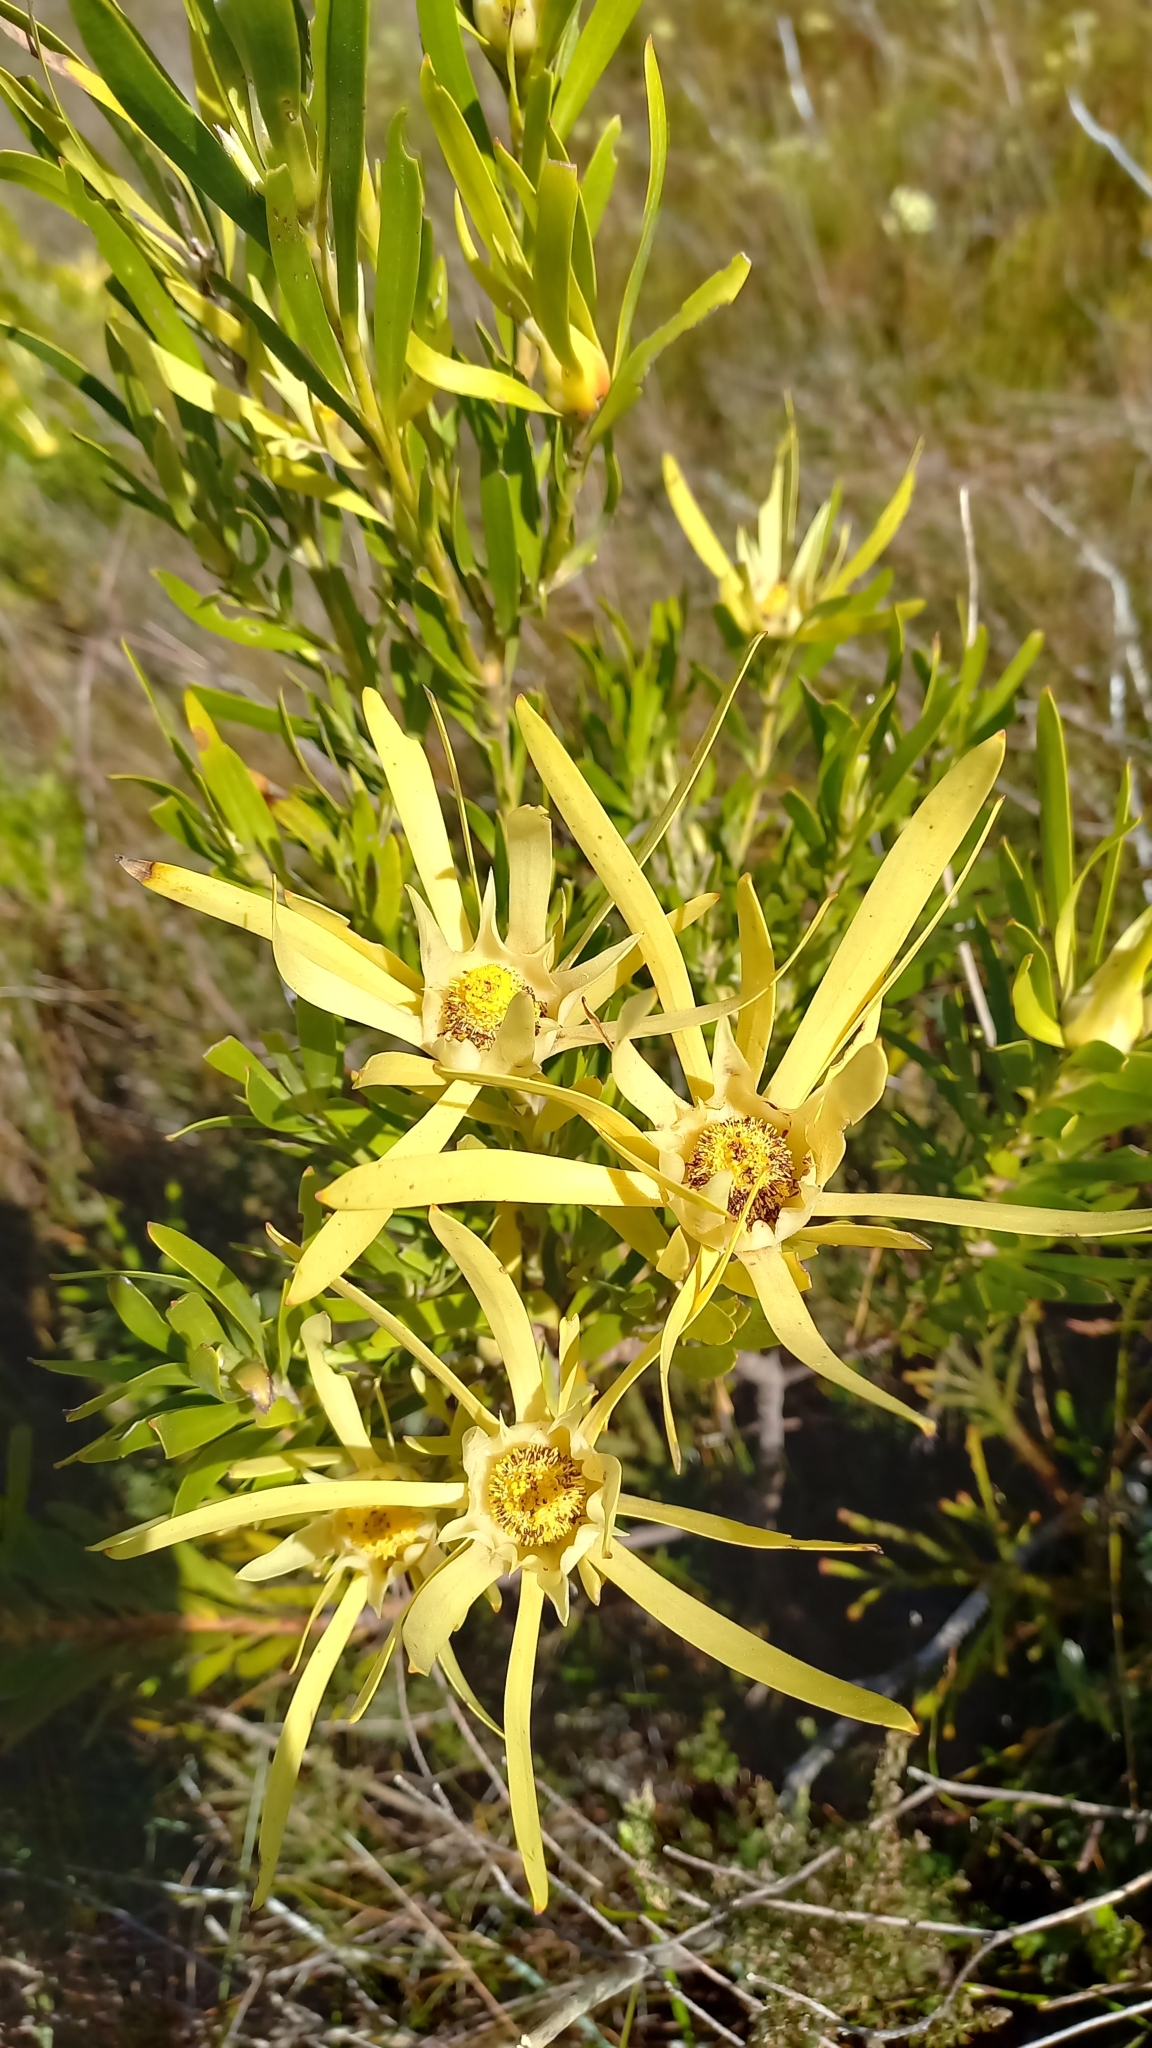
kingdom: Plantae
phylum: Tracheophyta
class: Magnoliopsida
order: Proteales
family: Proteaceae
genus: Leucadendron
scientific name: Leucadendron eucalyptifolium
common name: Gum-leaved conebush
